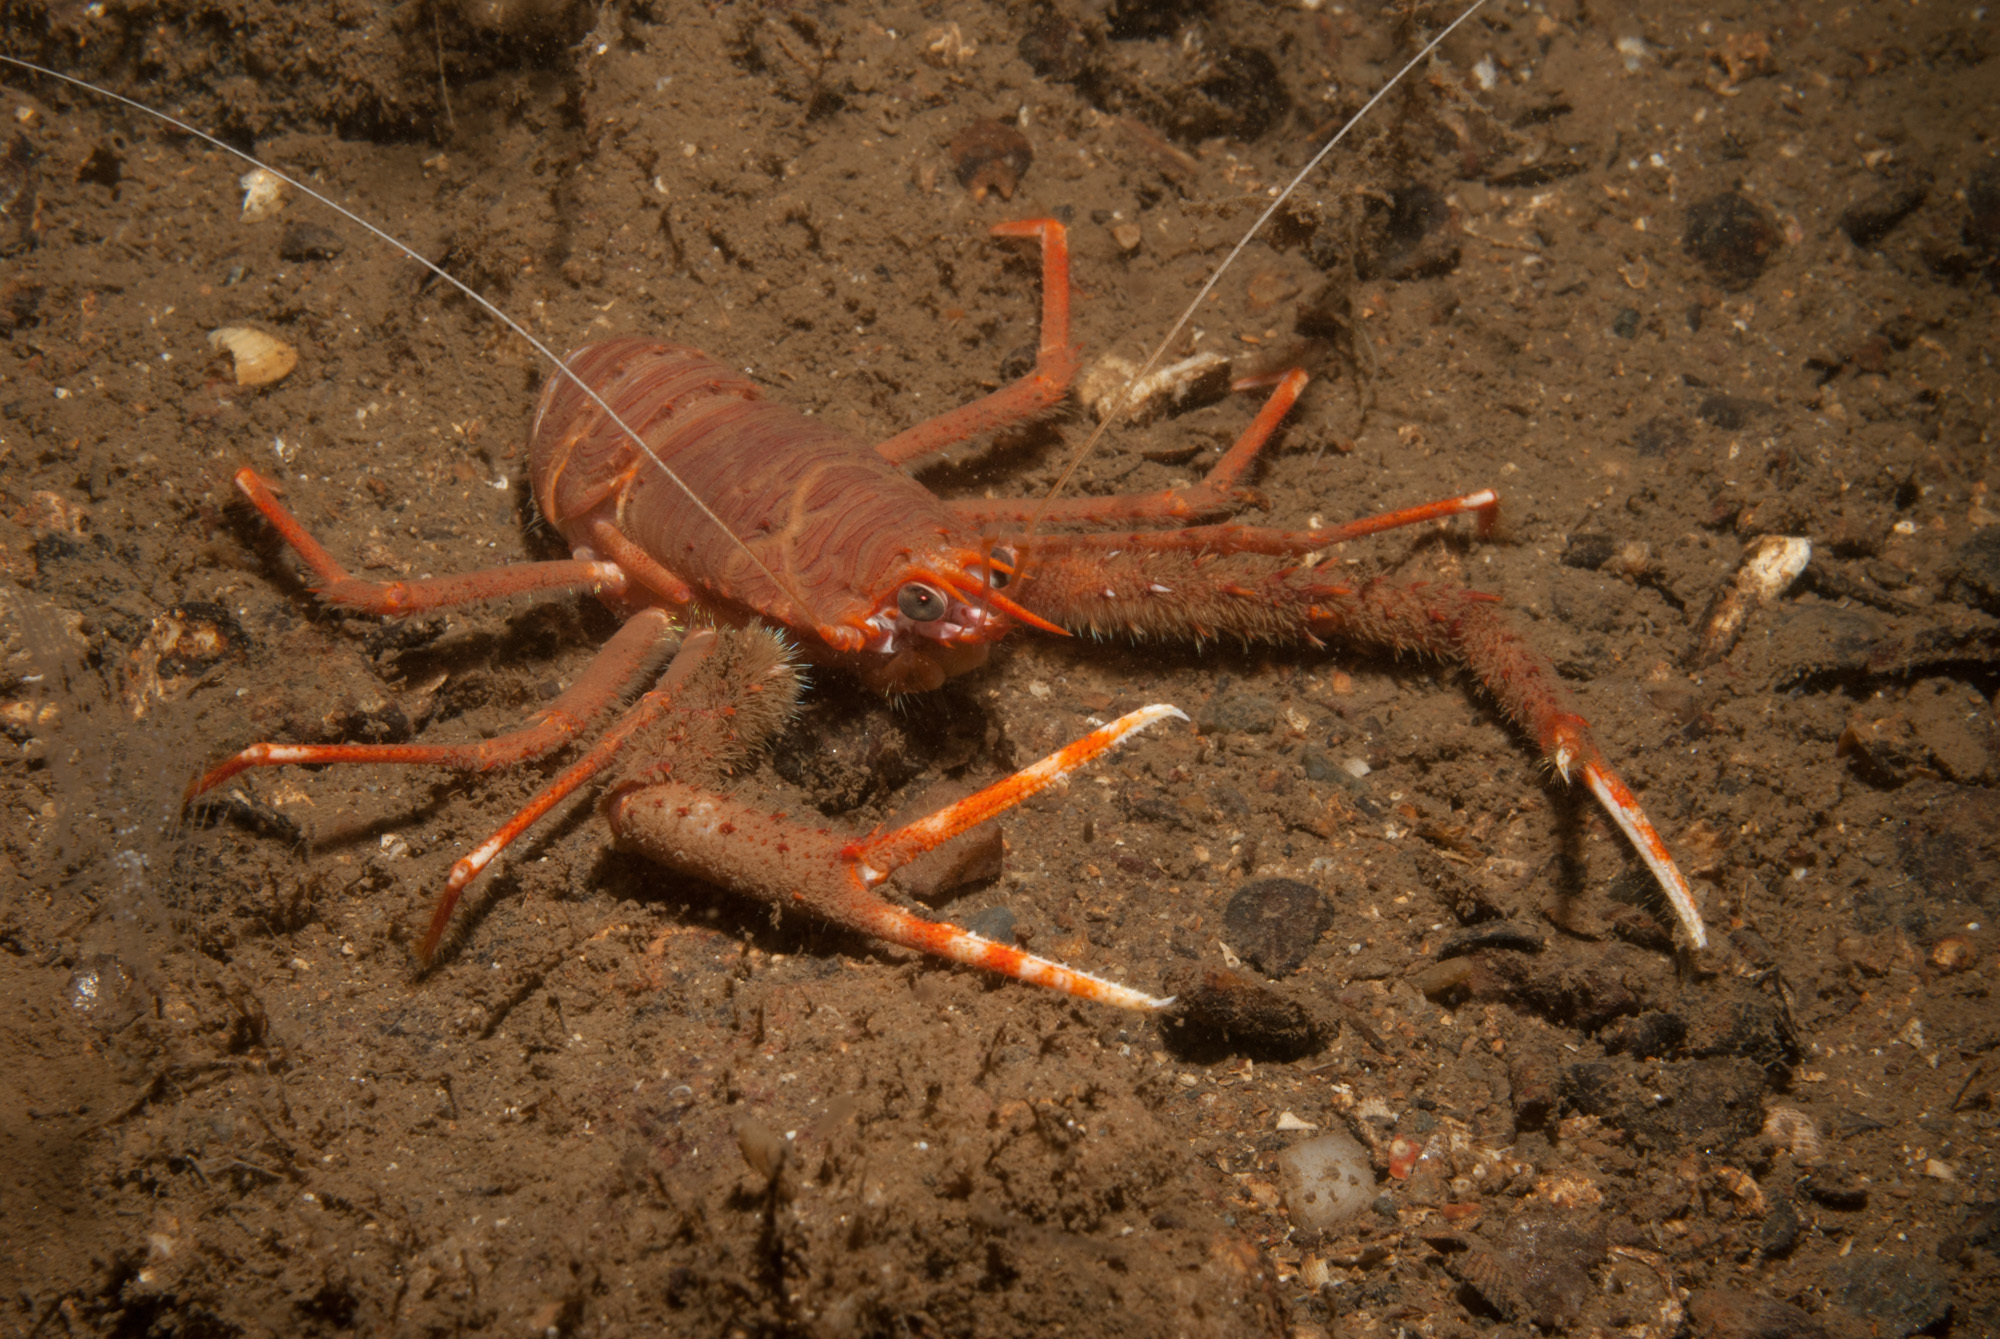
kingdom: Animalia
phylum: Arthropoda
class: Malacostraca
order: Decapoda
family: Munididae
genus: Munida
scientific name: Munida rugosa
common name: Rugose squat lobster
